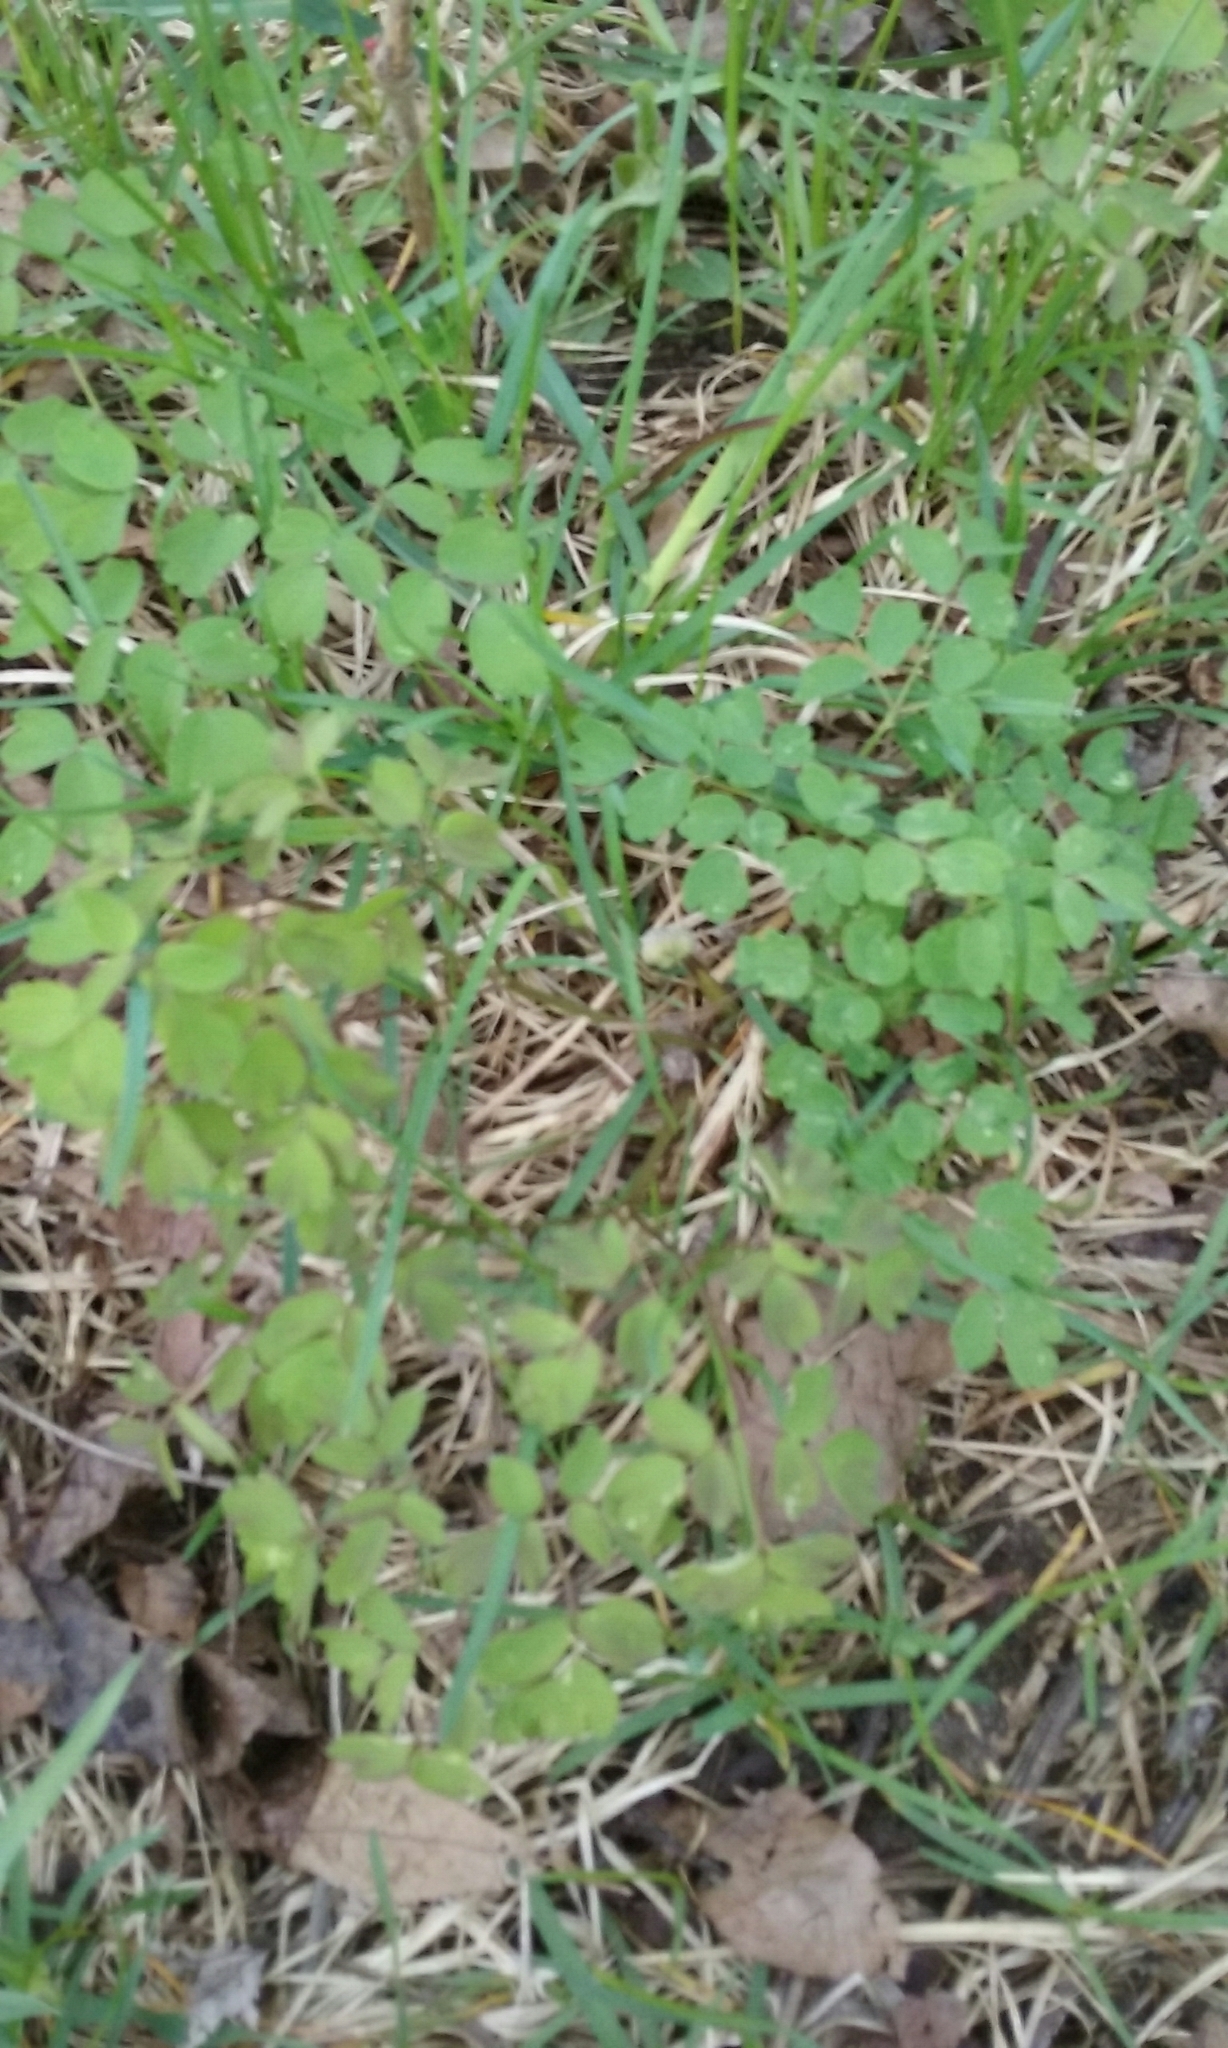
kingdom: Plantae
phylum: Tracheophyta
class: Magnoliopsida
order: Ranunculales
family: Ranunculaceae
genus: Thalictrum
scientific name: Thalictrum
